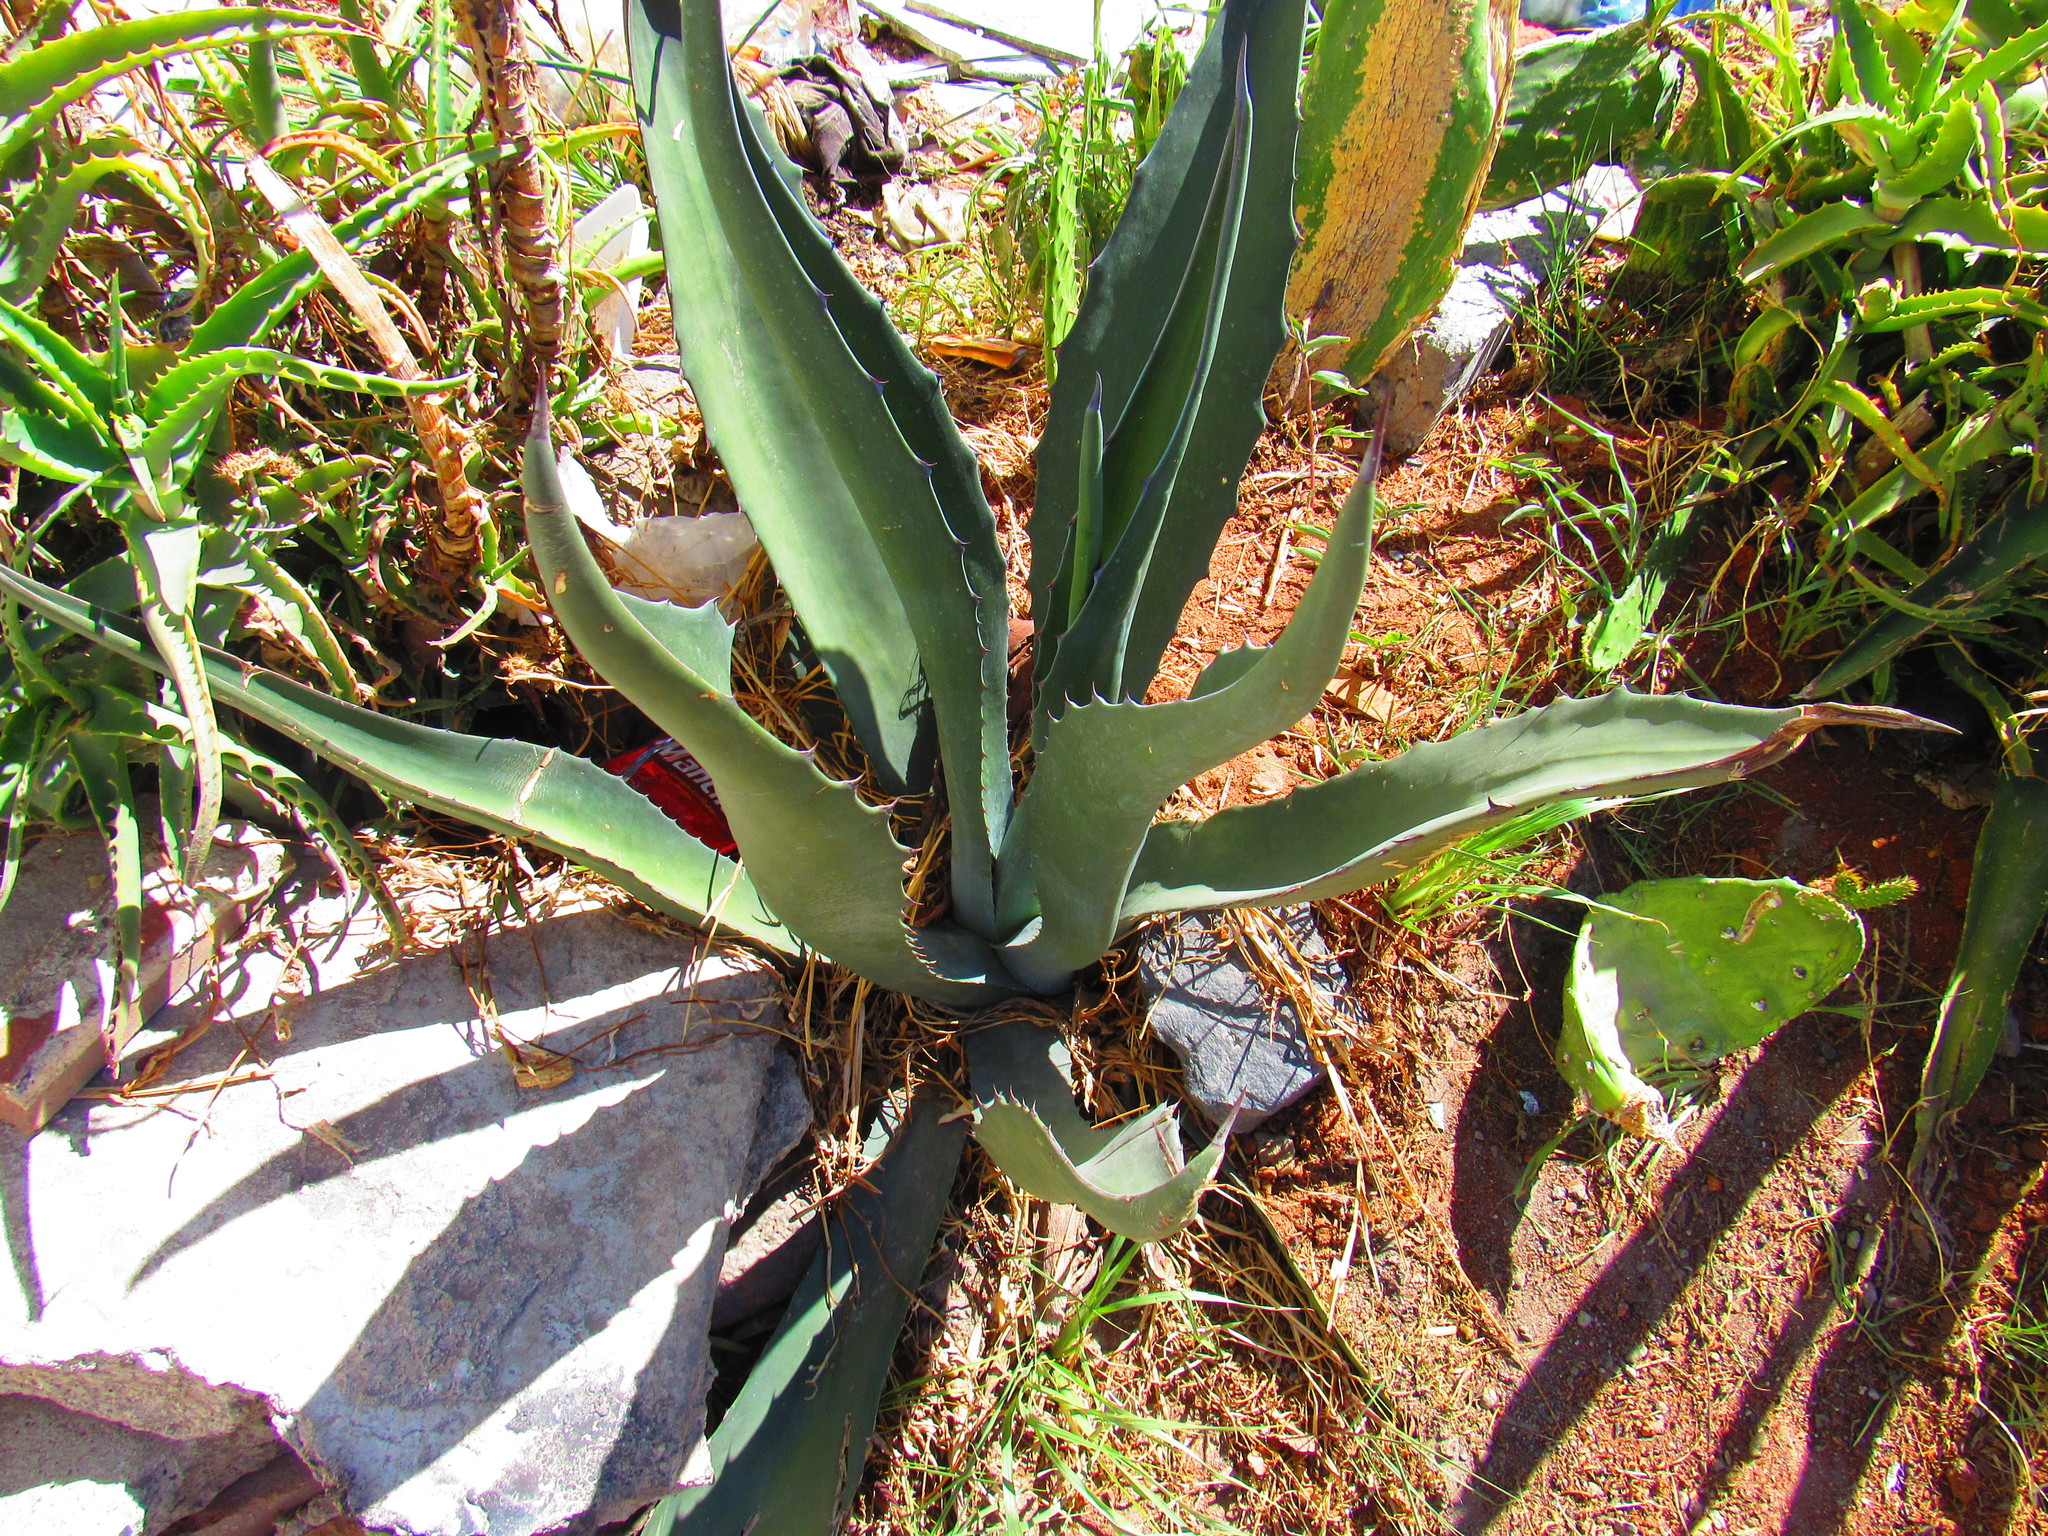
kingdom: Plantae
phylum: Tracheophyta
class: Magnoliopsida
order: Caryophyllales
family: Cactaceae
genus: Opuntia
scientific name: Opuntia cochenillifera
